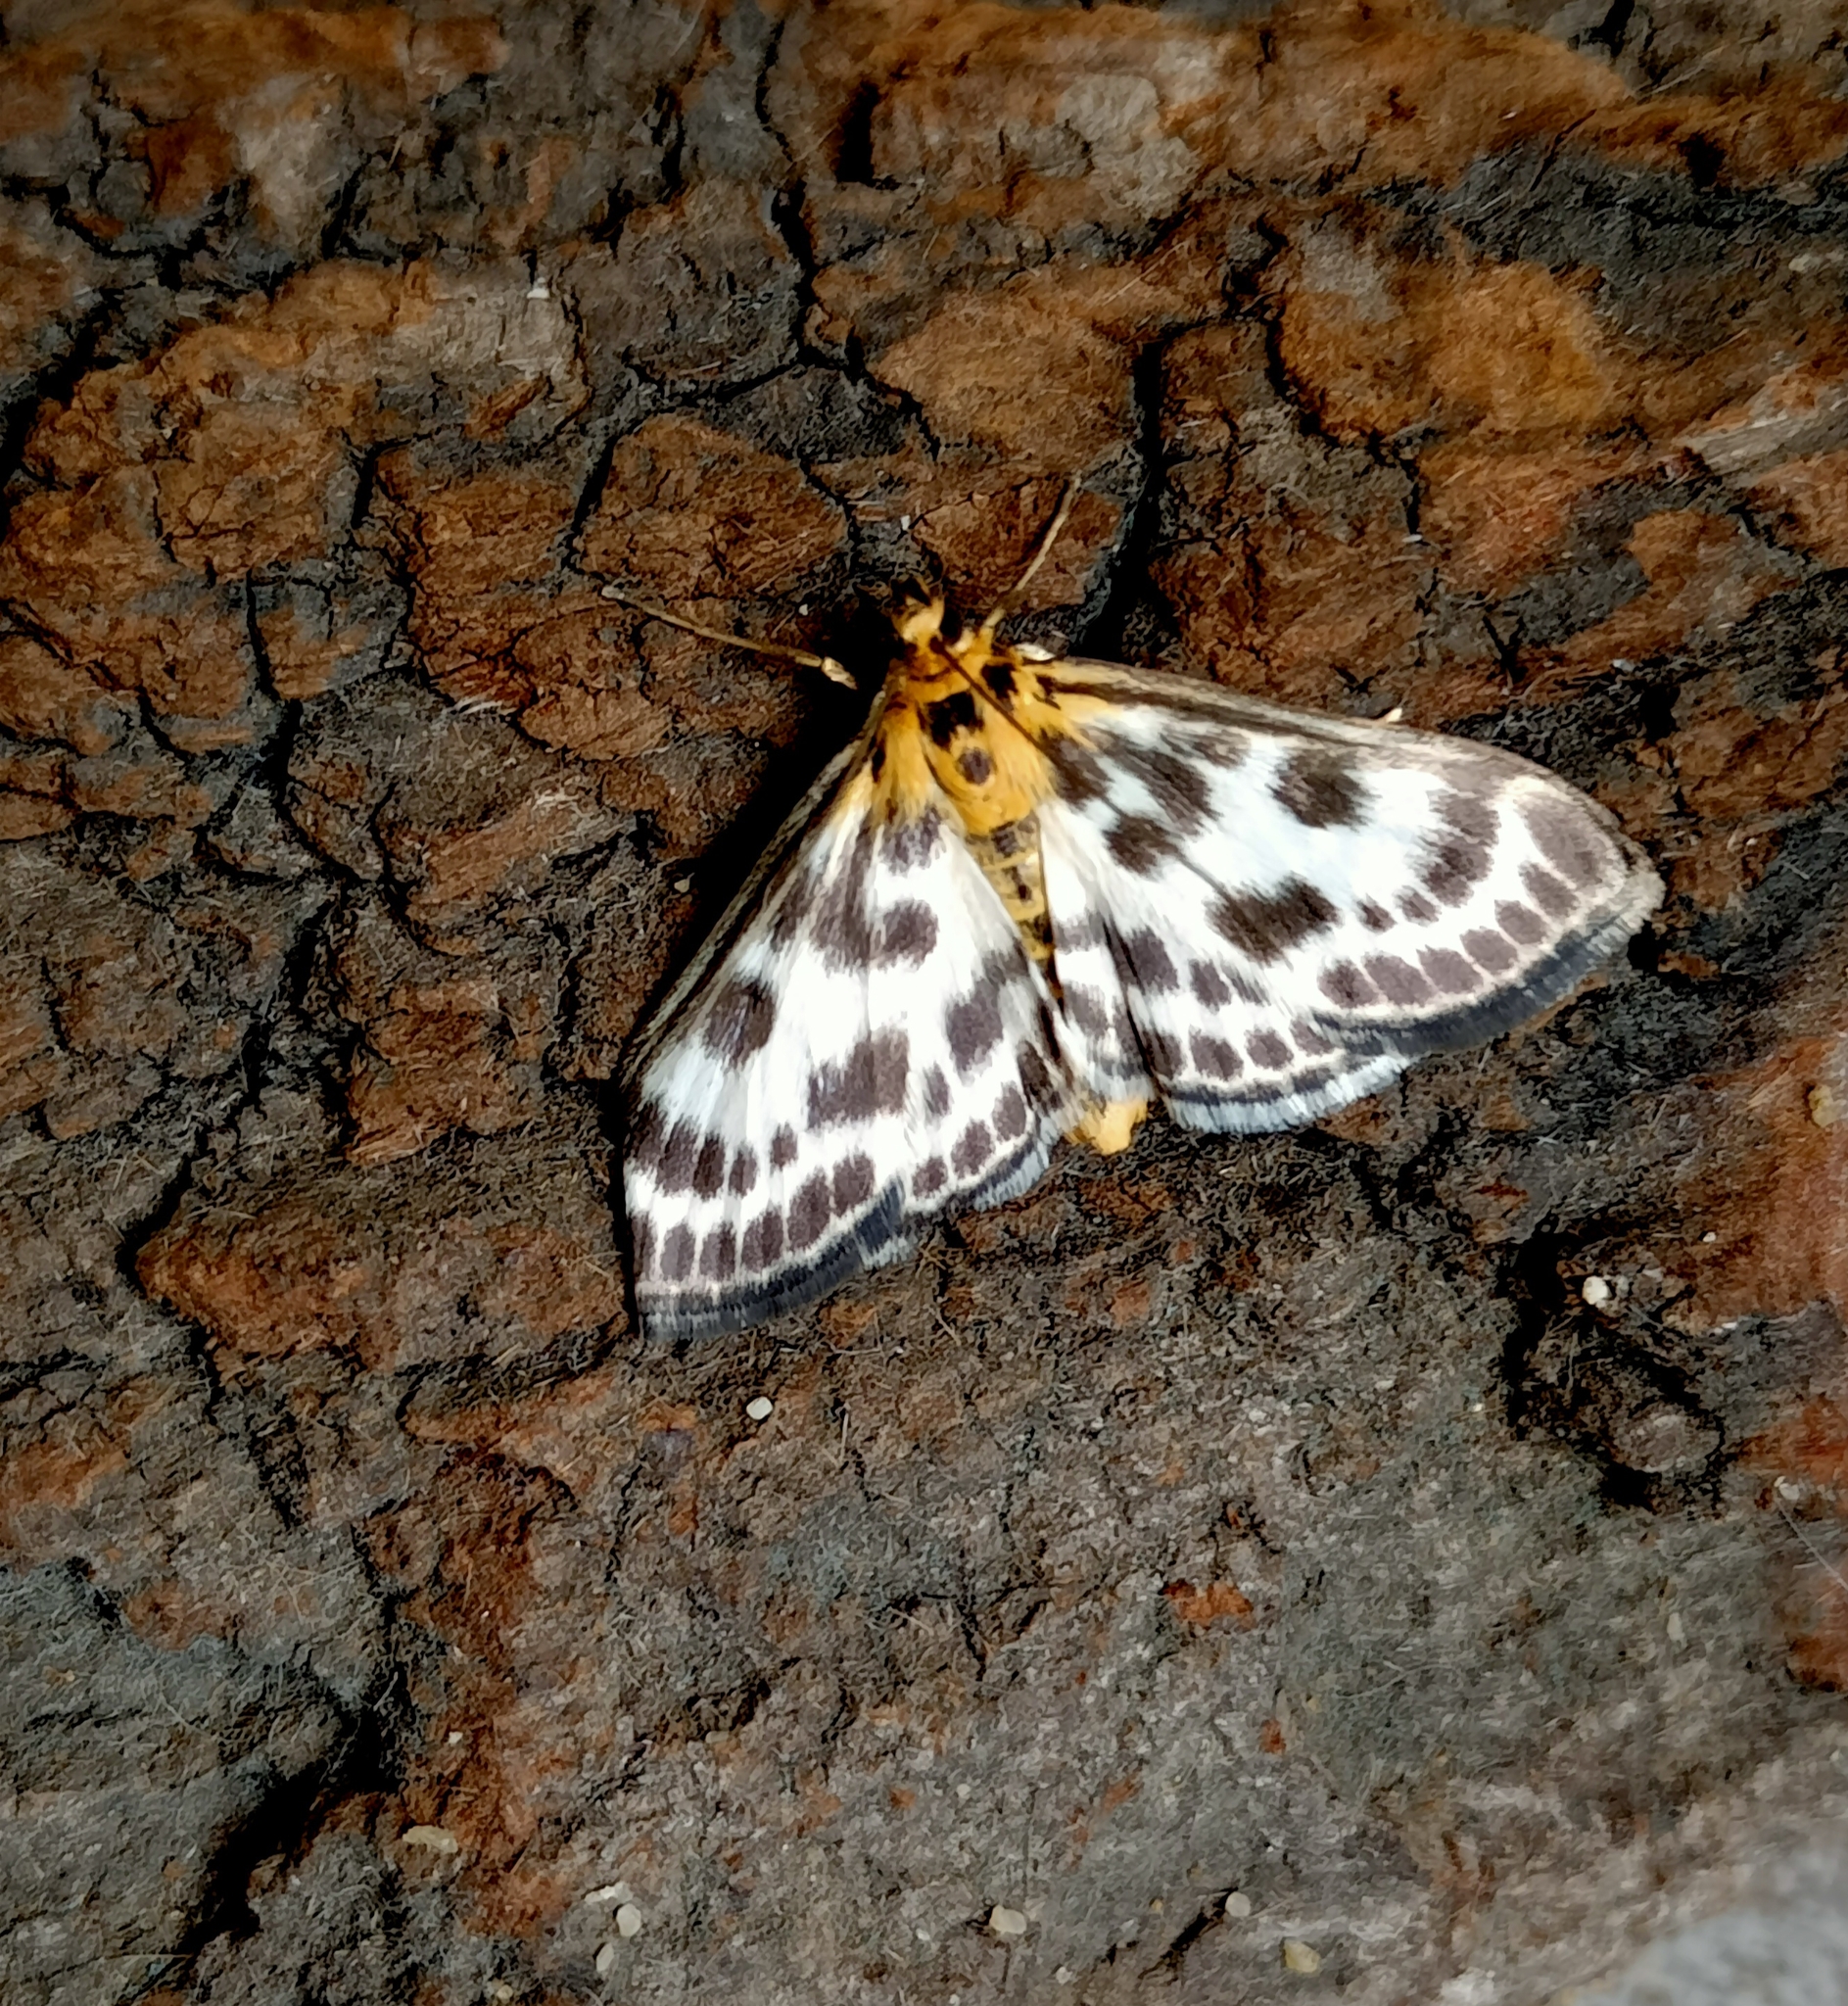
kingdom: Animalia
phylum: Arthropoda
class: Insecta
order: Lepidoptera
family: Crambidae
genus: Anania
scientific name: Anania hortulata
